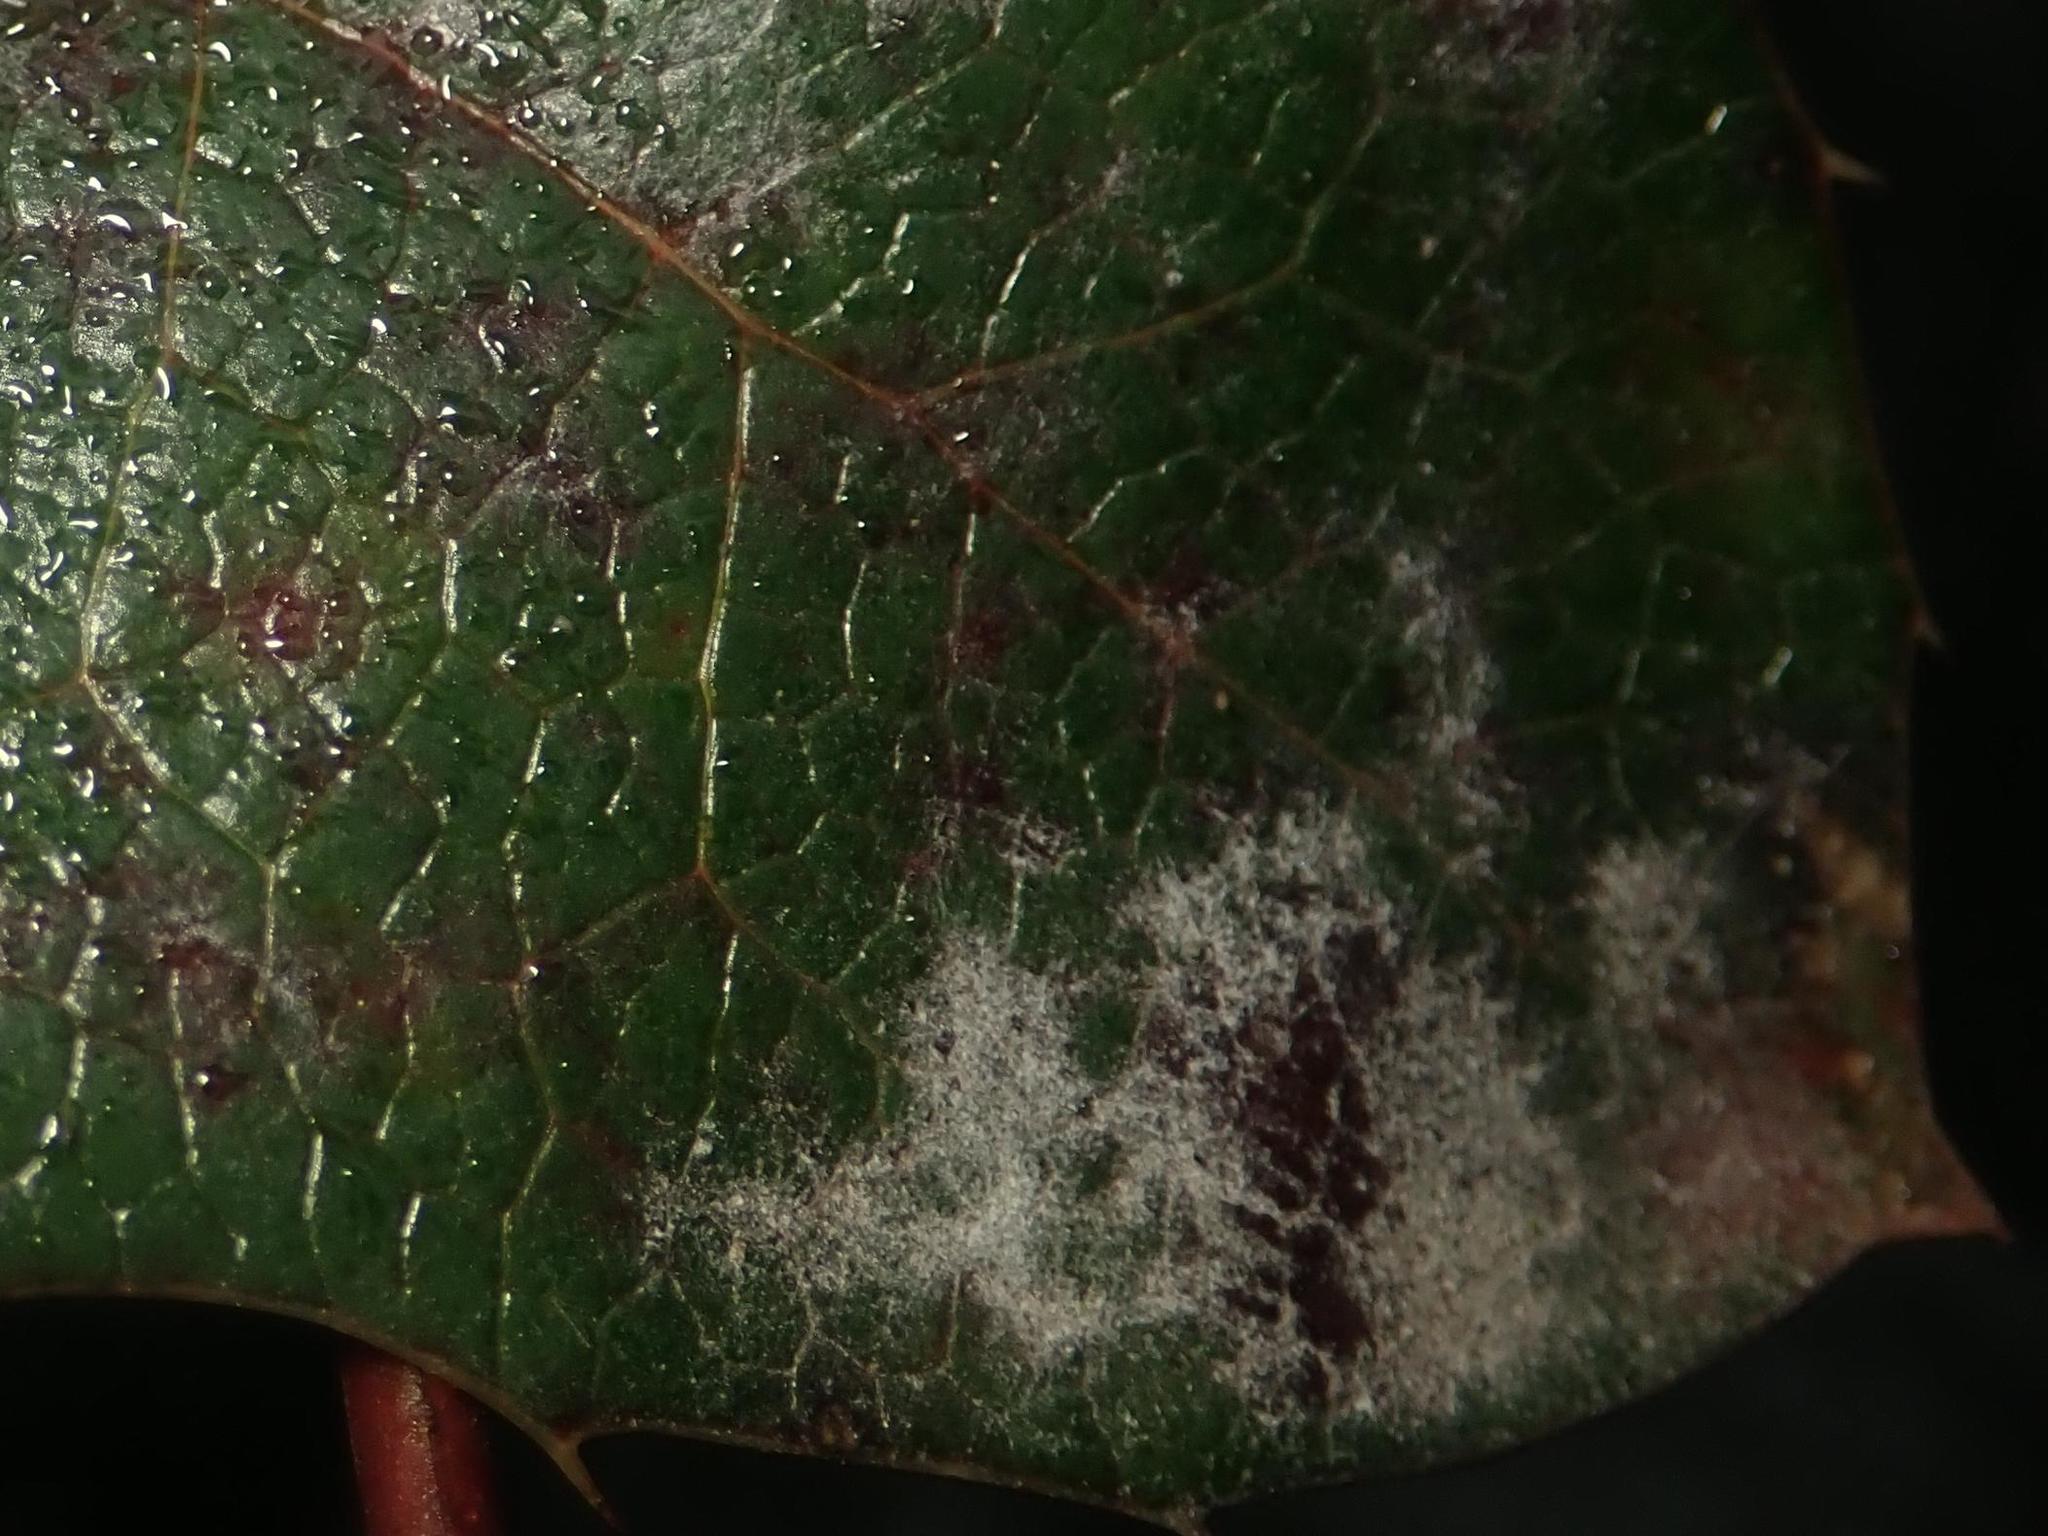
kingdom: Fungi
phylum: Ascomycota
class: Leotiomycetes
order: Helotiales
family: Erysiphaceae
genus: Erysiphe
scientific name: Erysiphe berberidis
